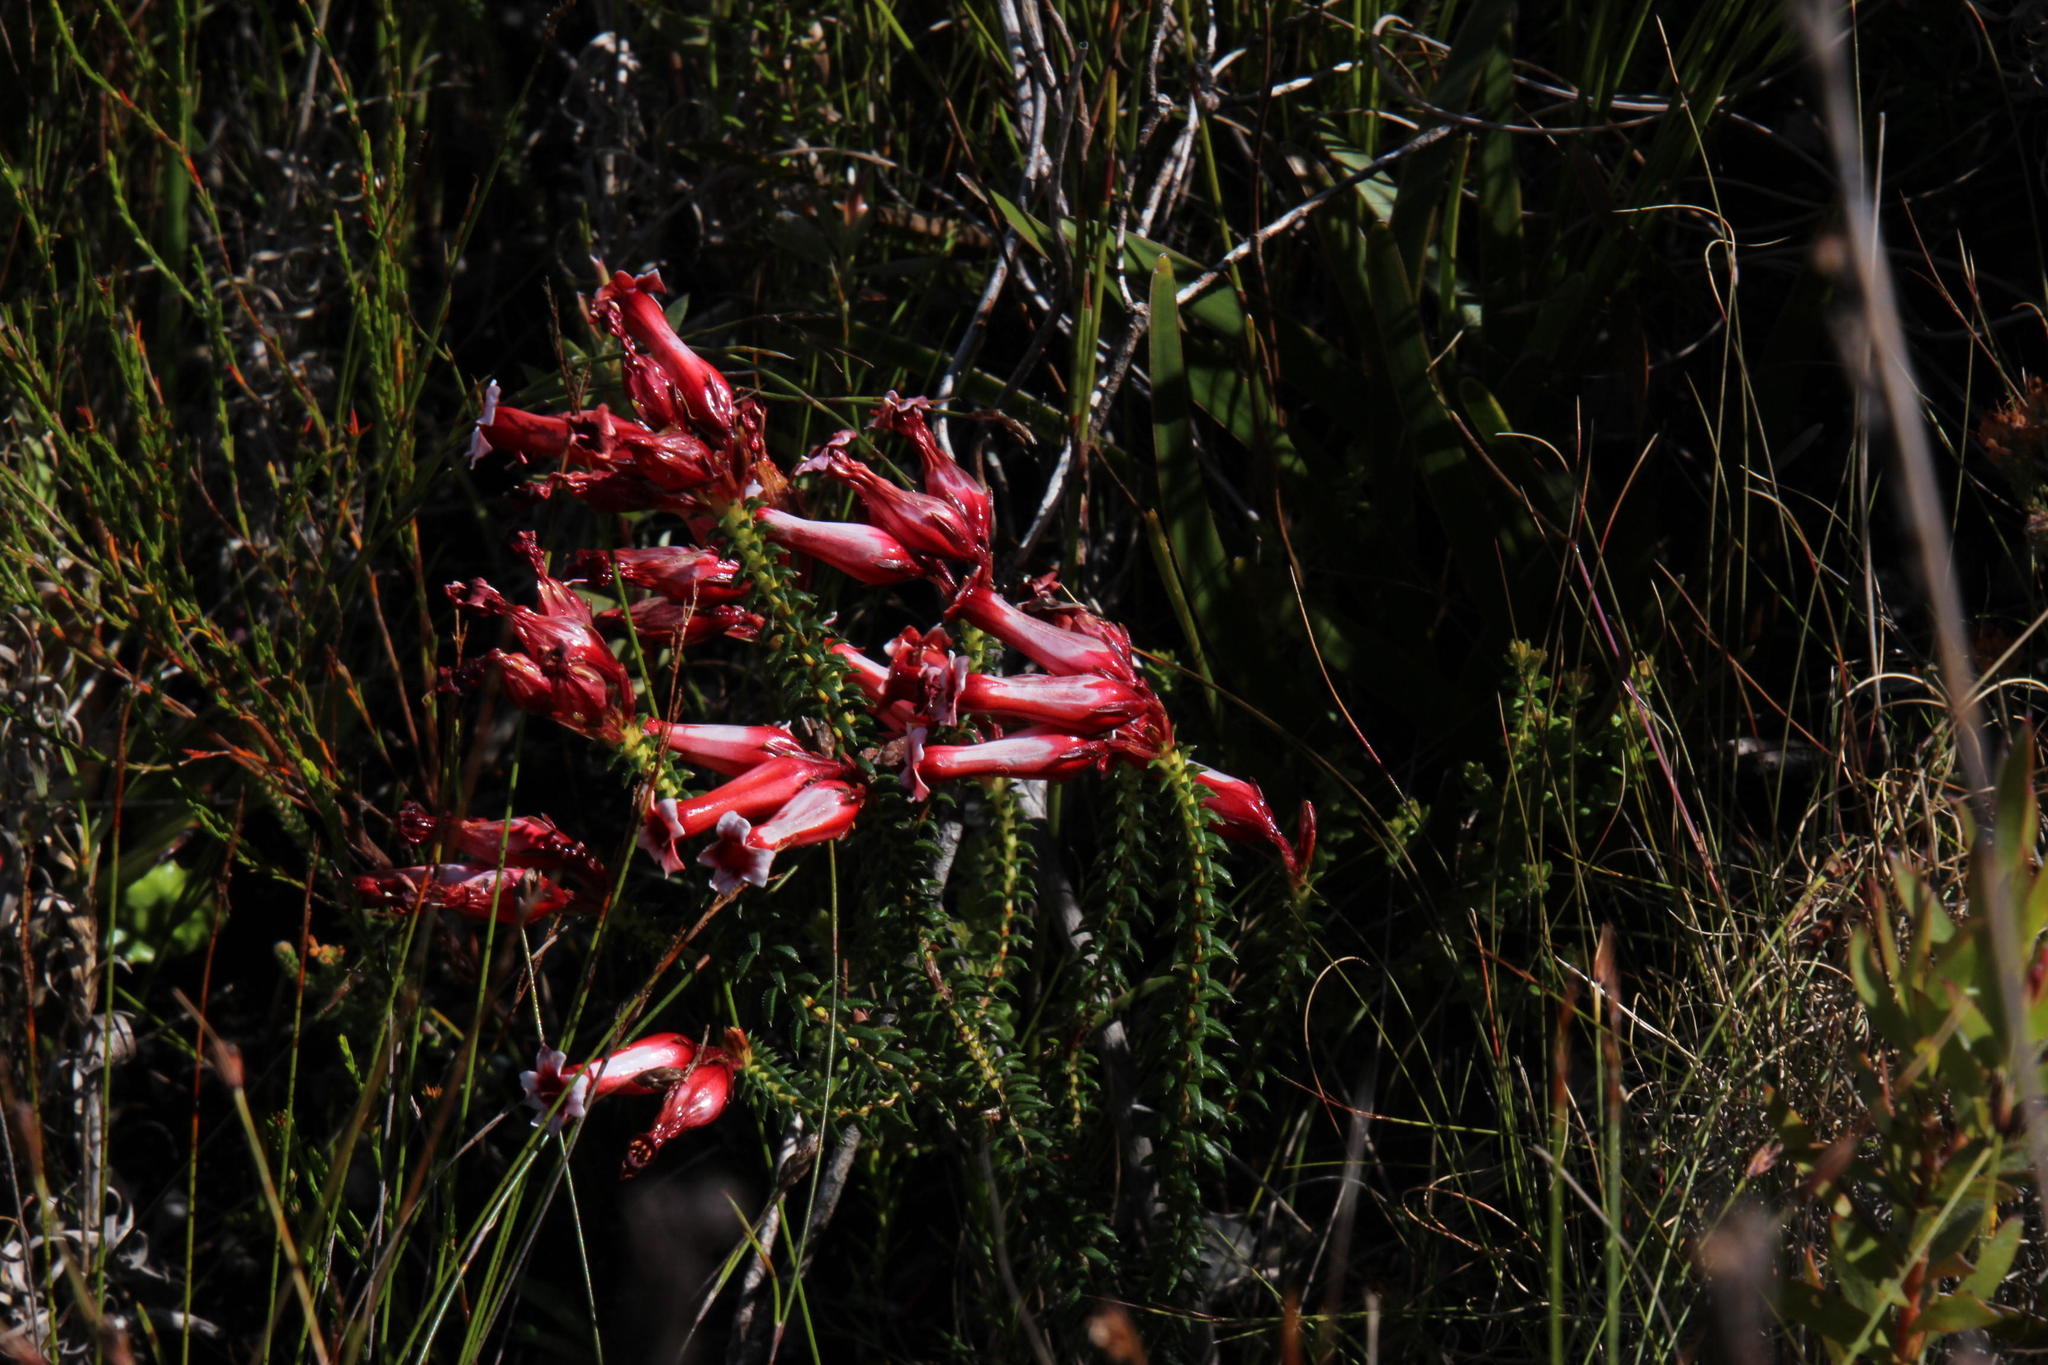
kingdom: Plantae
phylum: Tracheophyta
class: Magnoliopsida
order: Ericales
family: Ericaceae
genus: Erica
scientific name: Erica aristata
